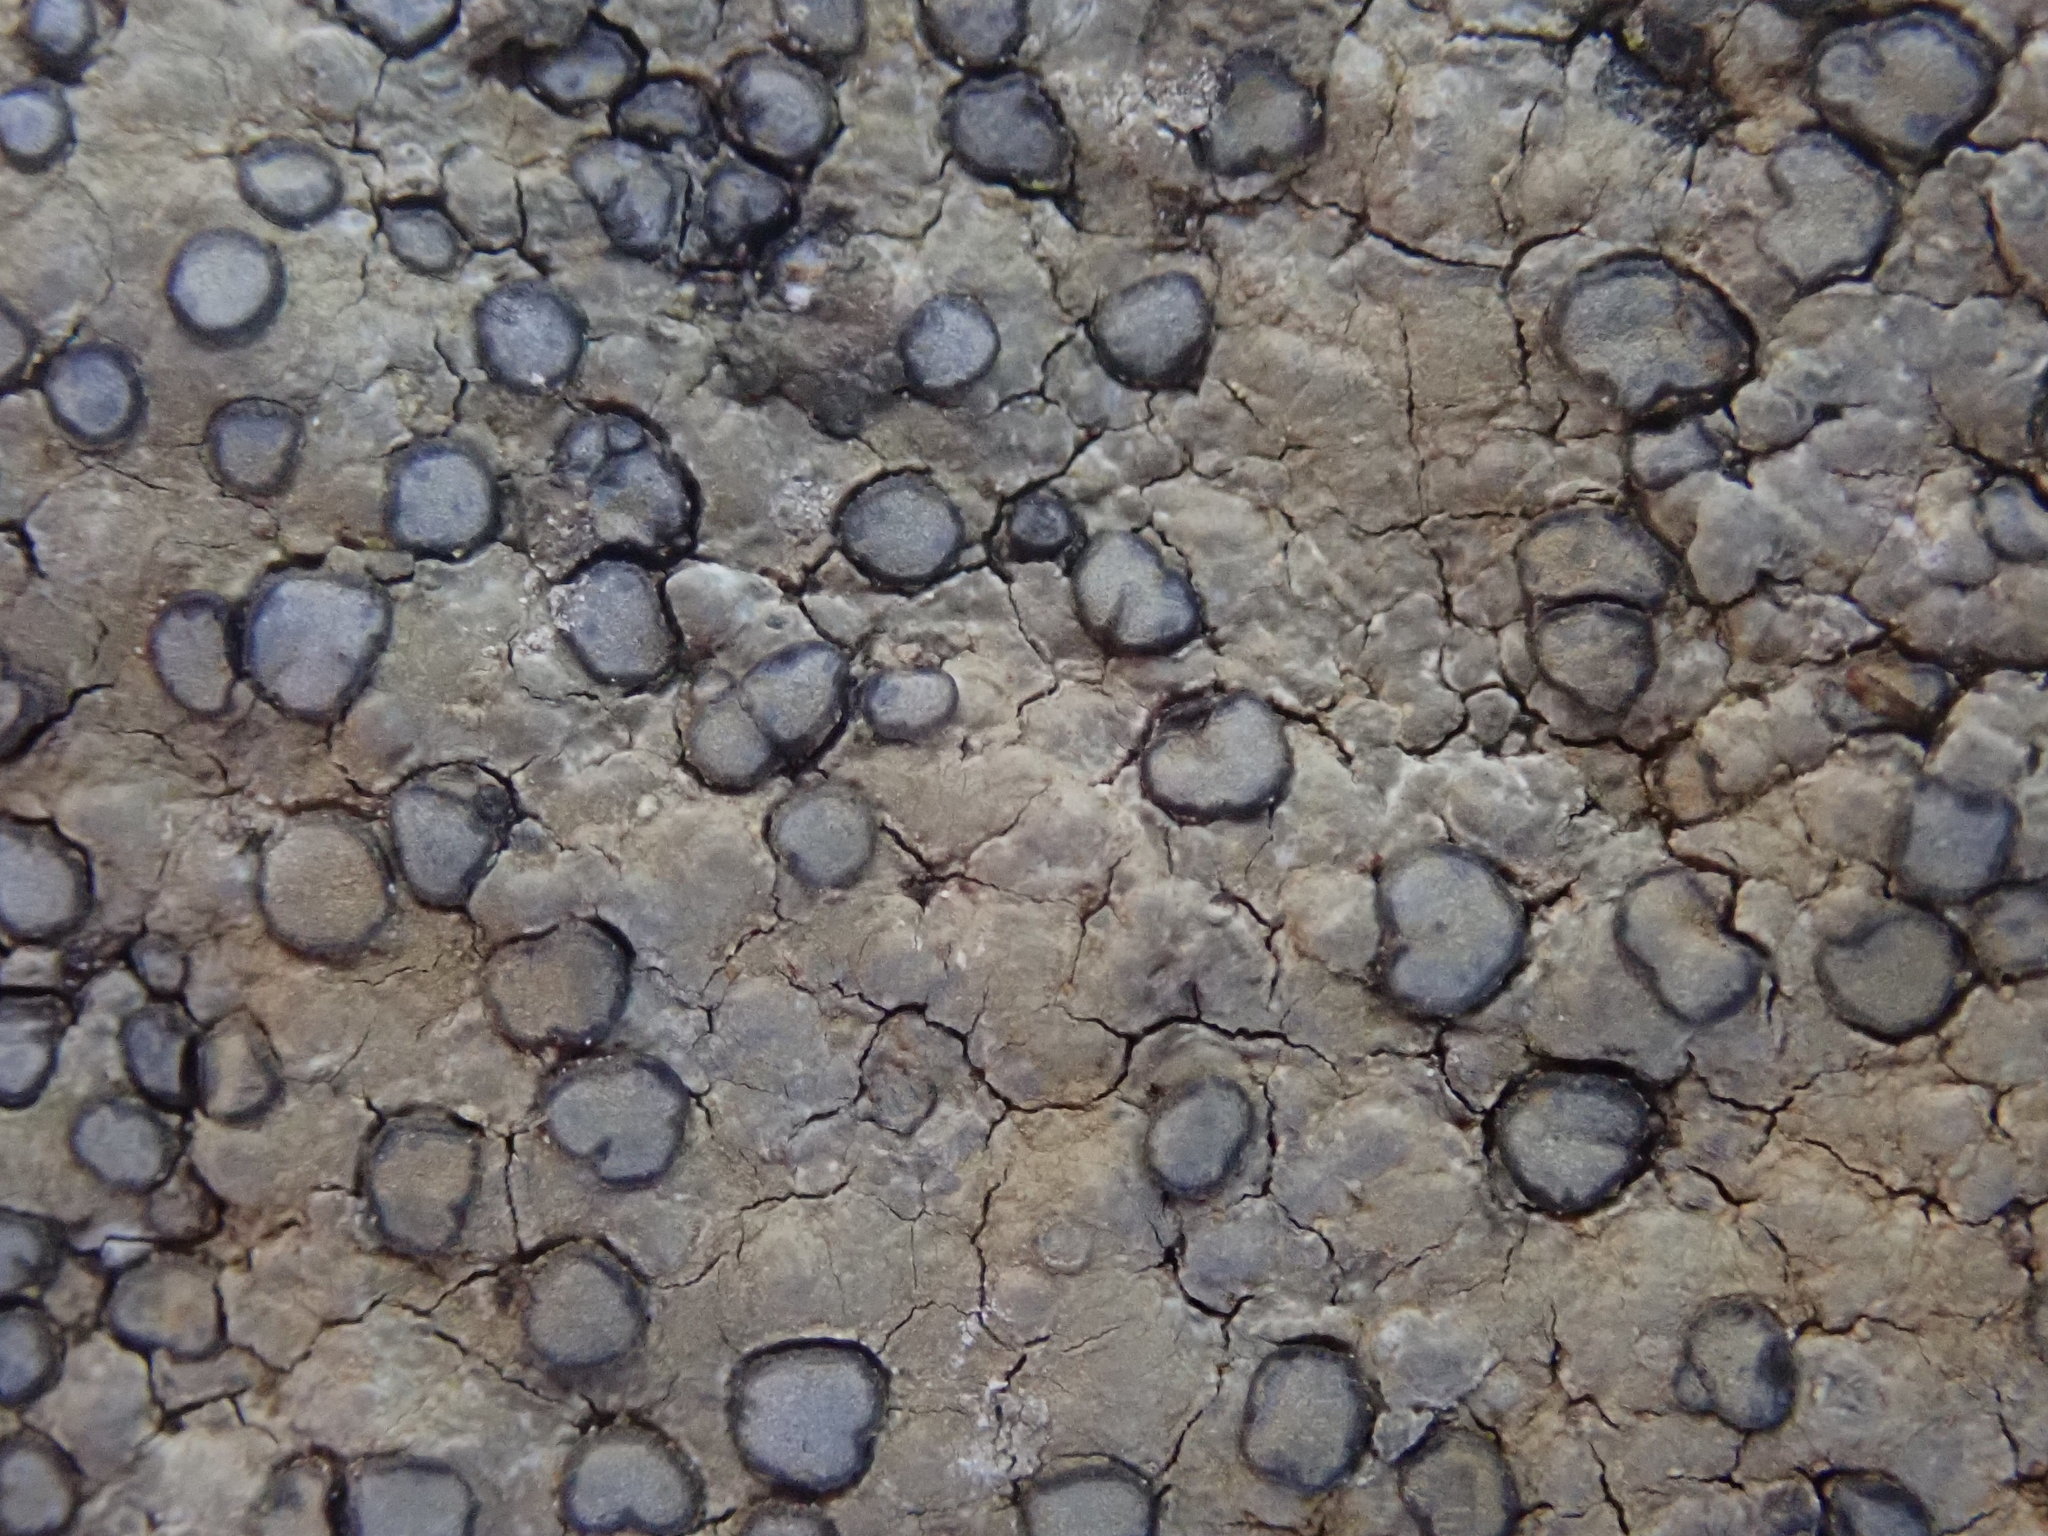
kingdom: Fungi
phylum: Ascomycota
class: Lecanoromycetes
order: Lecideales
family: Lecideaceae
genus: Porpidia
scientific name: Porpidia albocaerulescens
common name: Smokey-eyed boulder lichen
